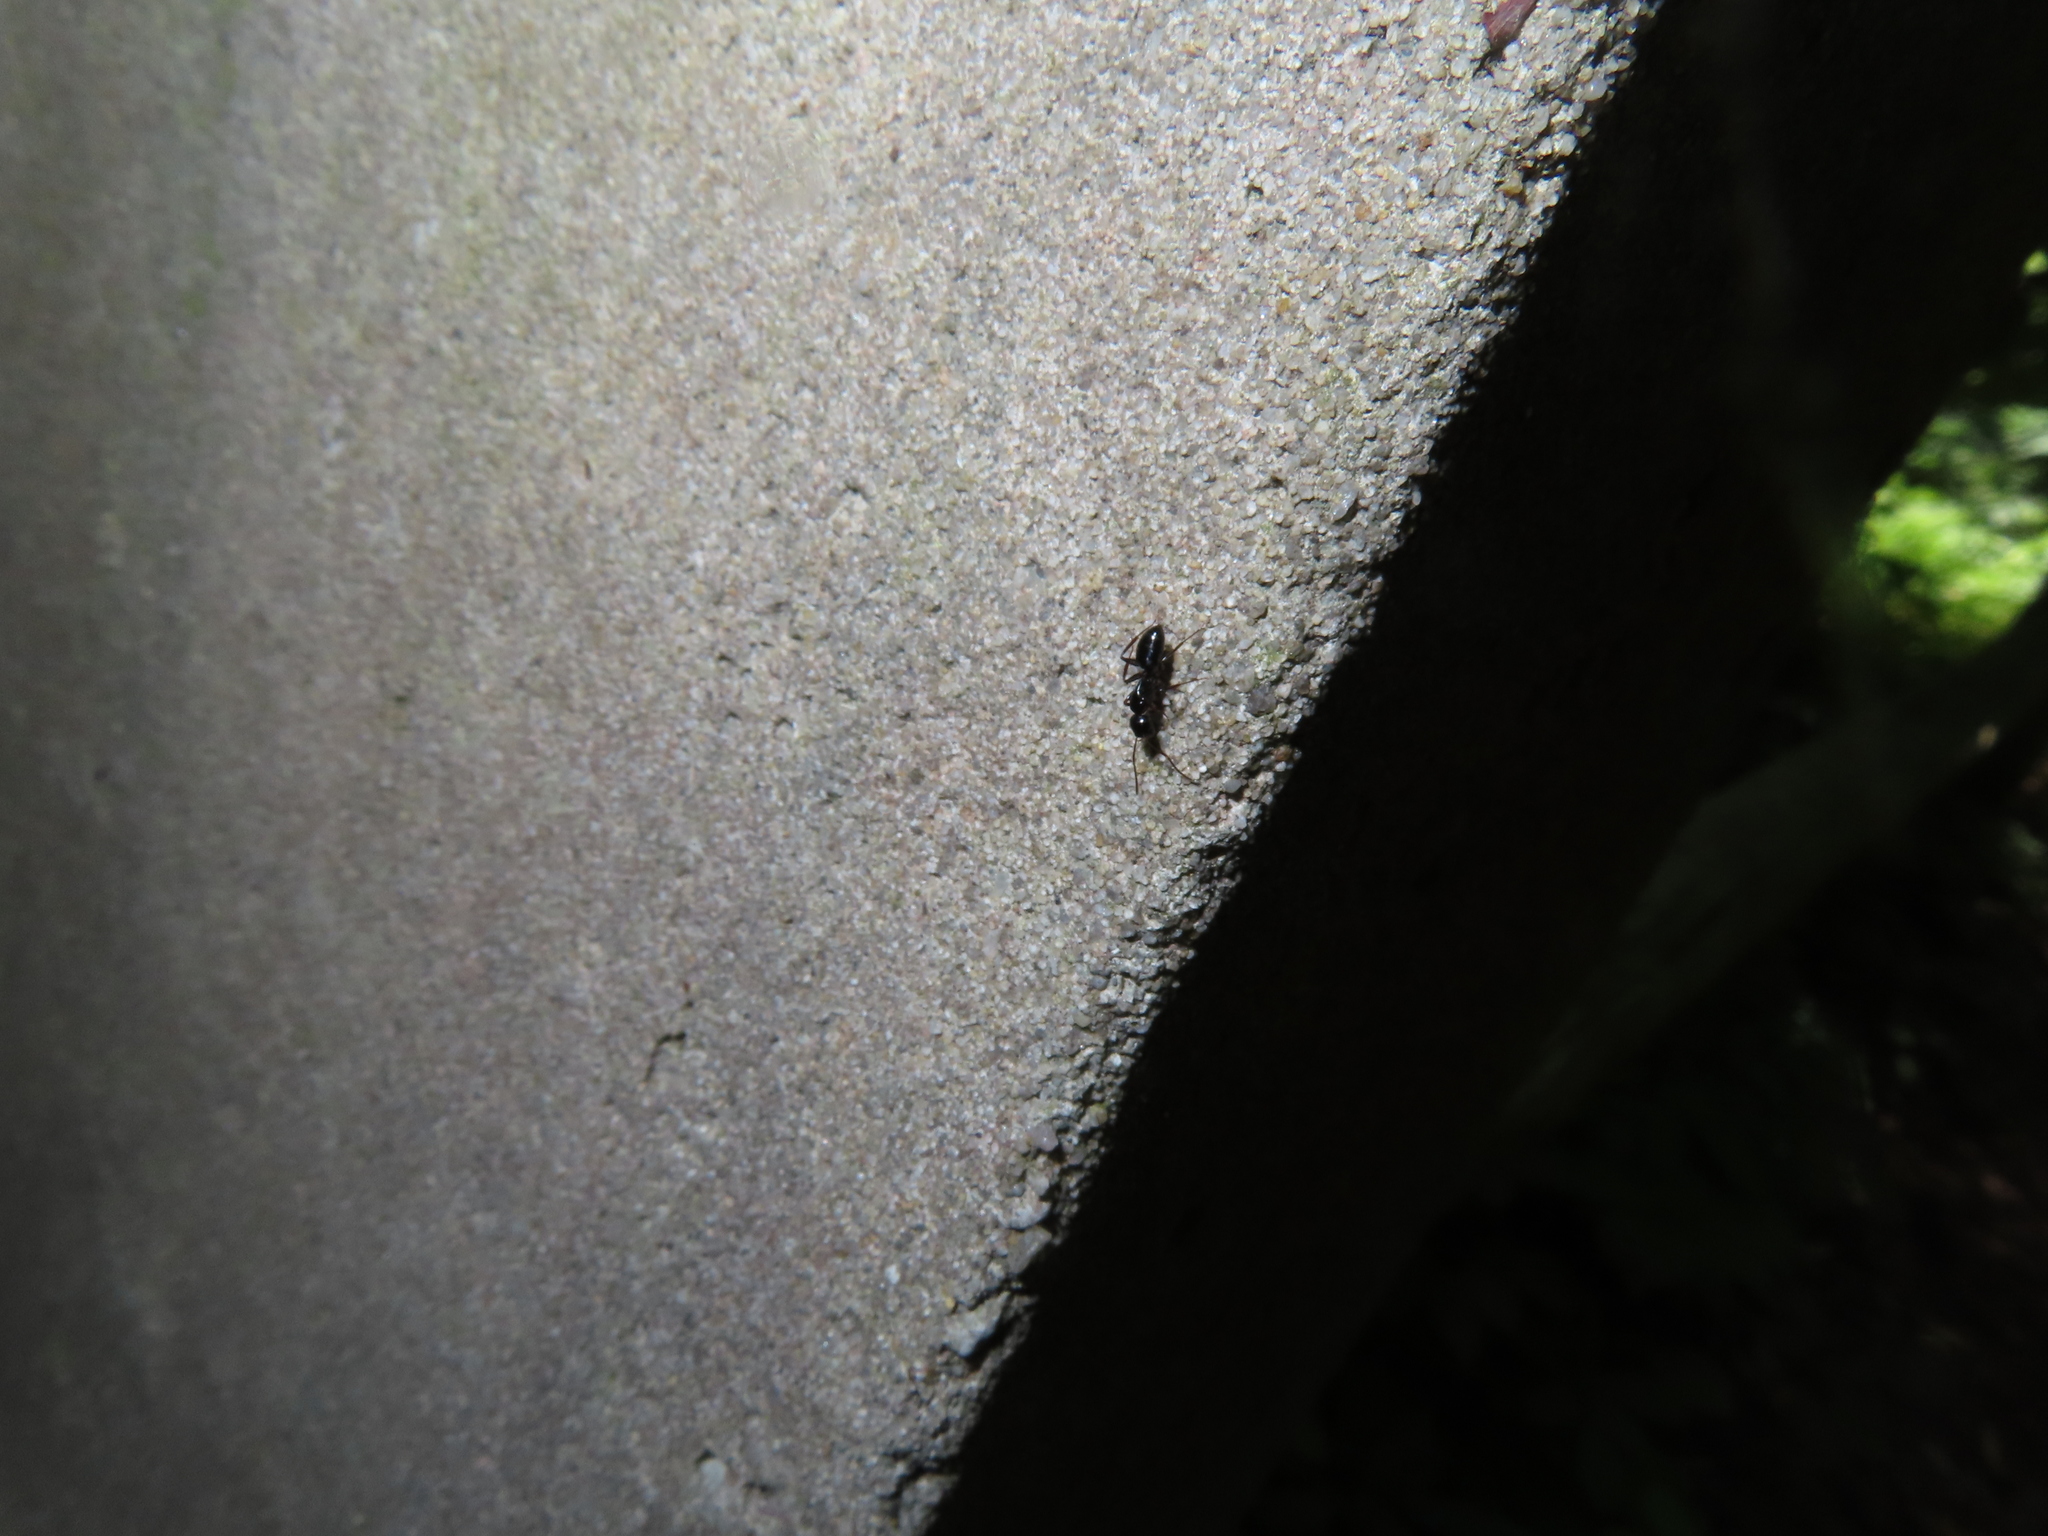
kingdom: Animalia
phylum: Arthropoda
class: Insecta
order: Hymenoptera
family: Formicidae
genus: Myrmentoma
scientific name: Myrmentoma
